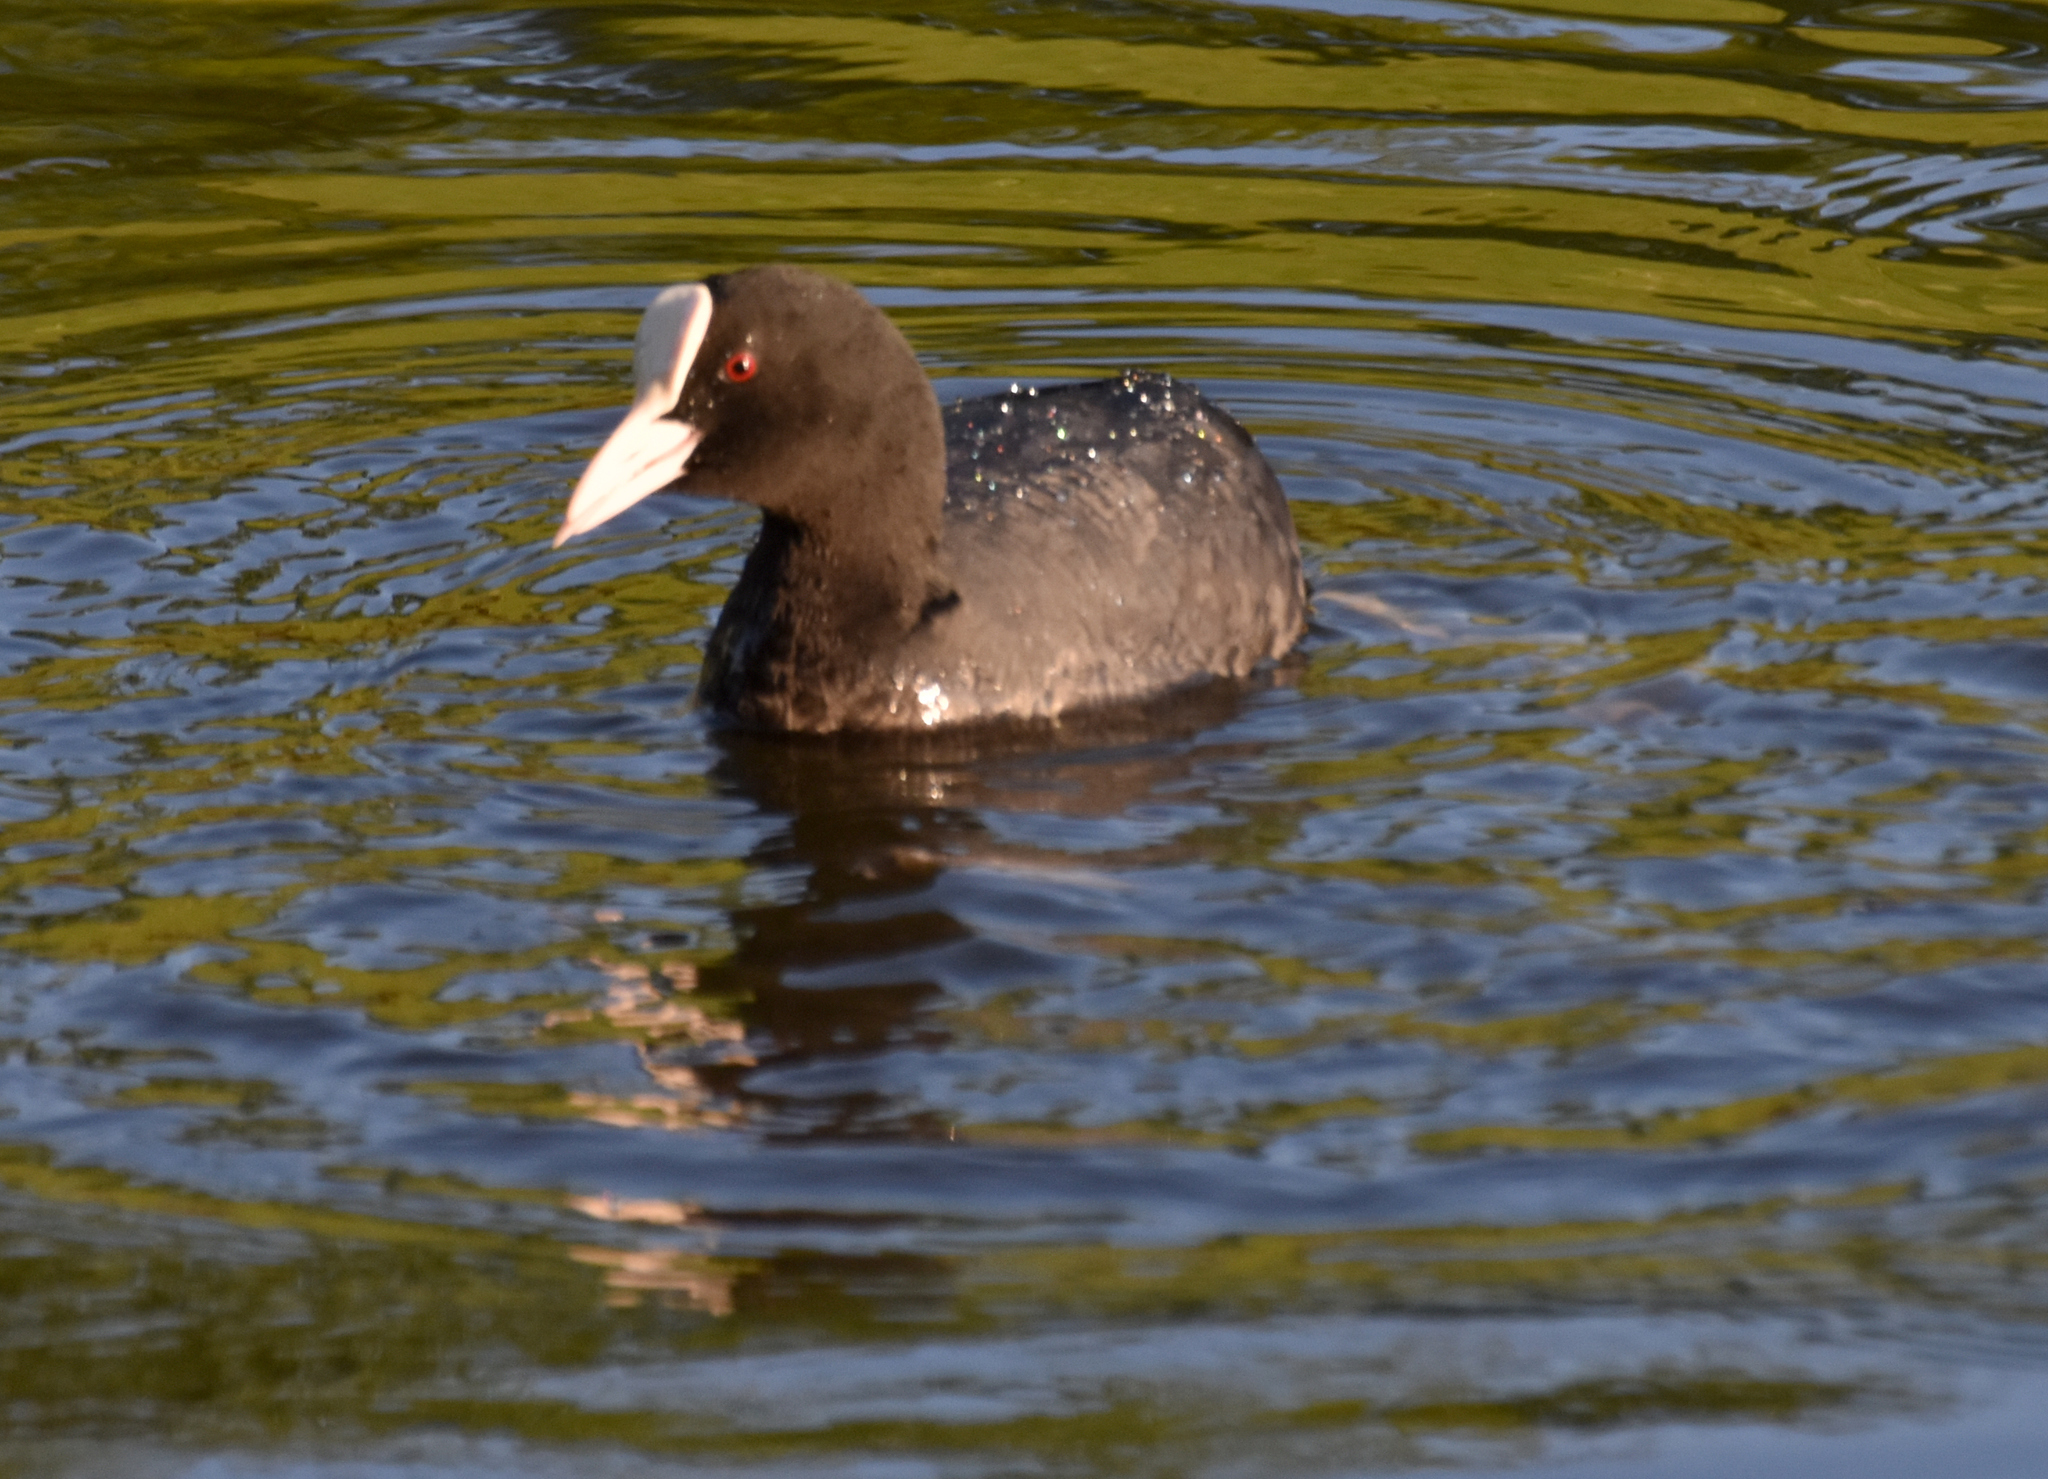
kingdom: Animalia
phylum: Chordata
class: Aves
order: Gruiformes
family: Rallidae
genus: Fulica
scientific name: Fulica atra
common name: Eurasian coot
